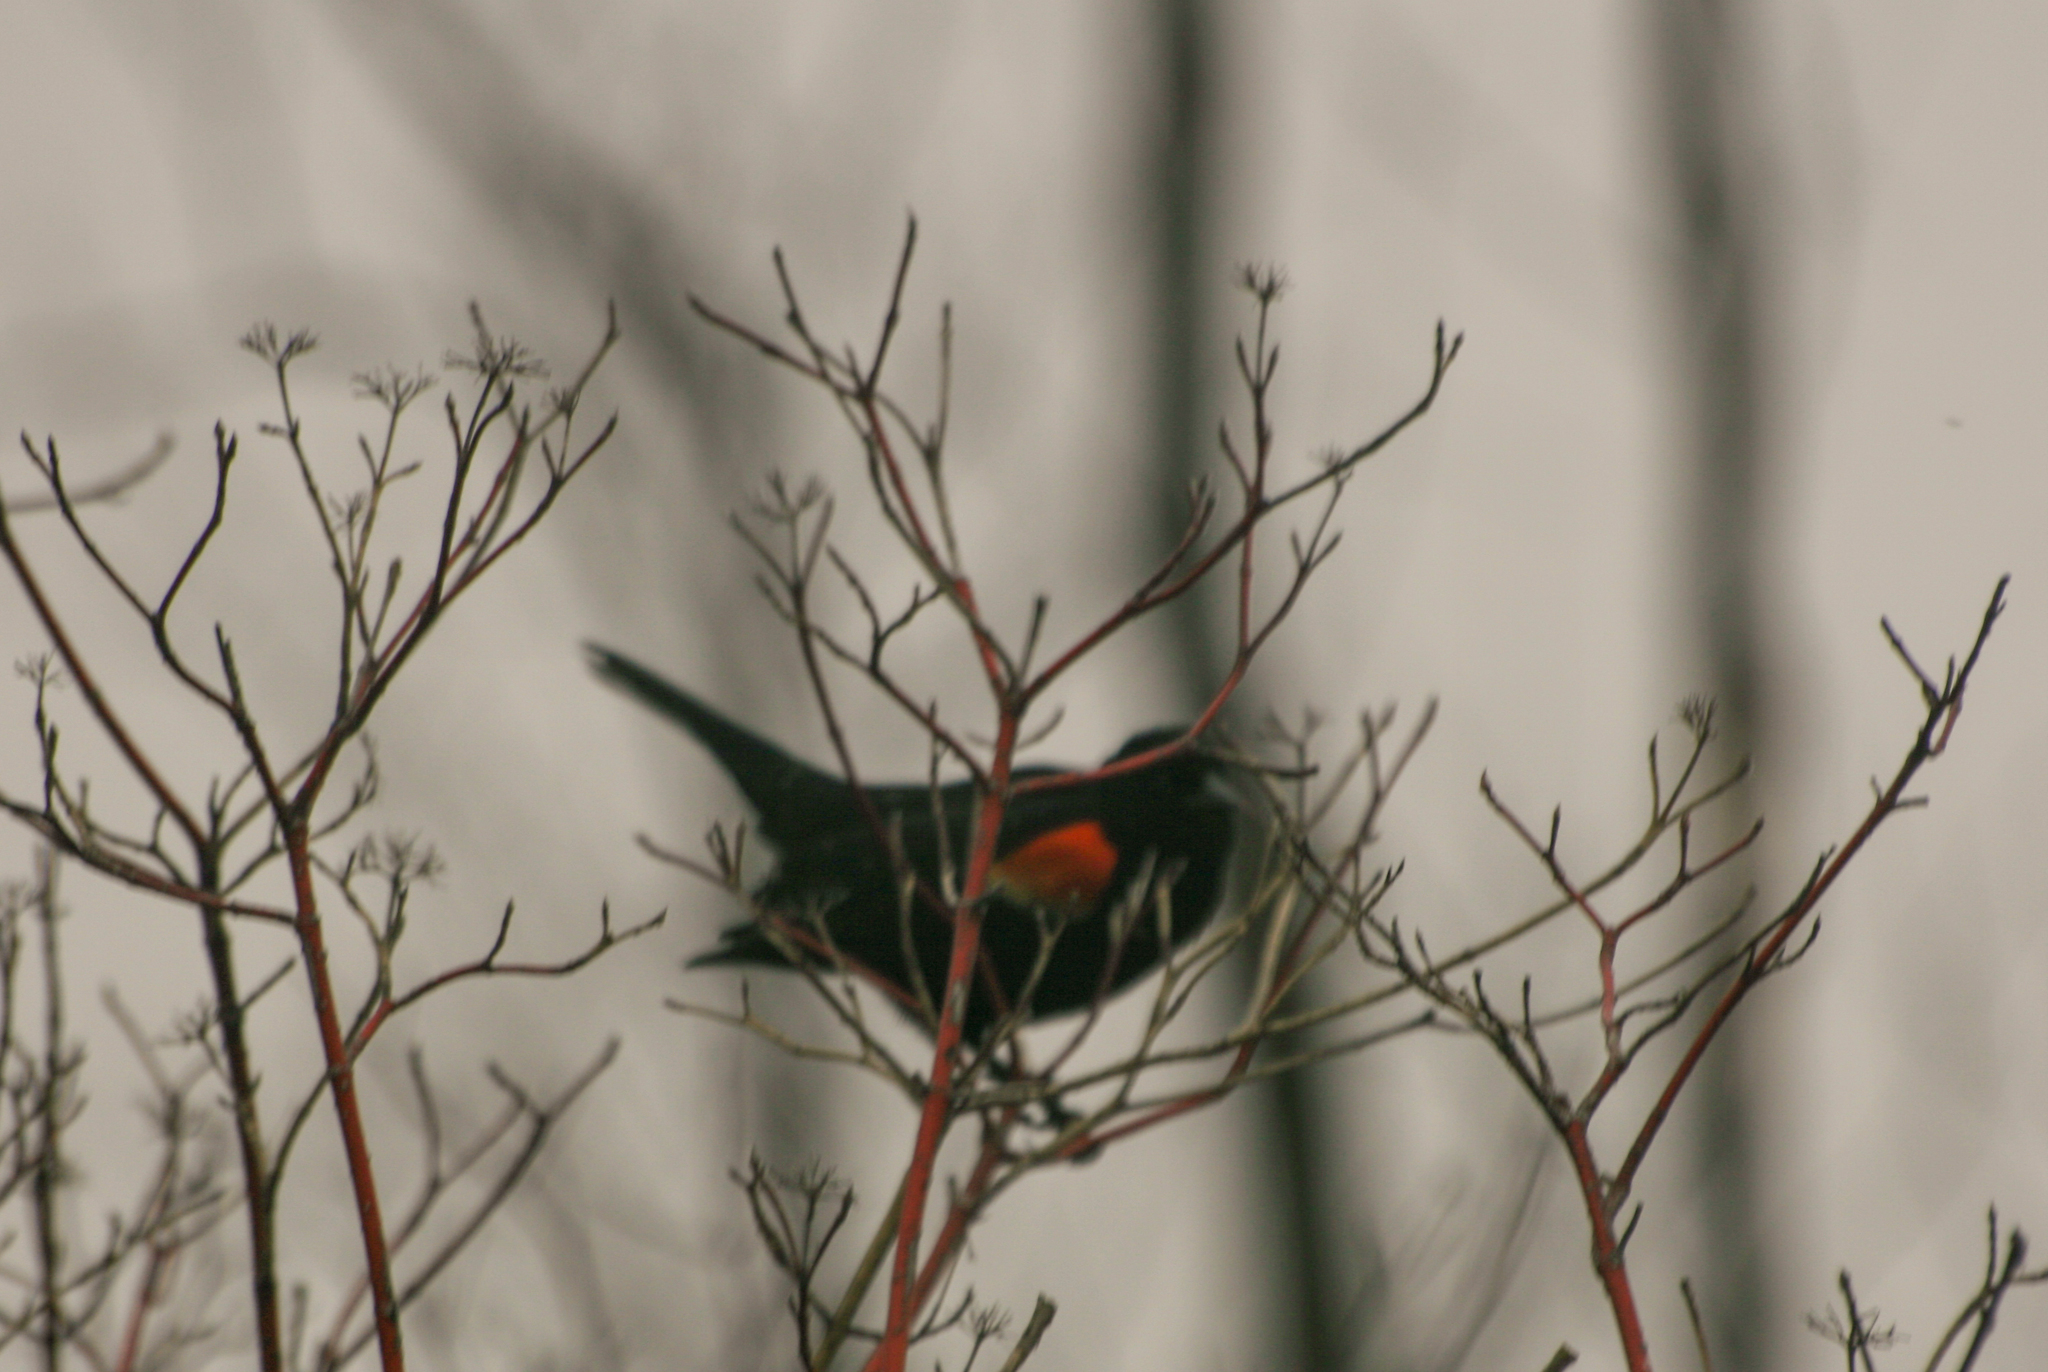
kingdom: Animalia
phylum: Chordata
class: Aves
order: Passeriformes
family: Icteridae
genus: Agelaius
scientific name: Agelaius phoeniceus
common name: Red-winged blackbird
